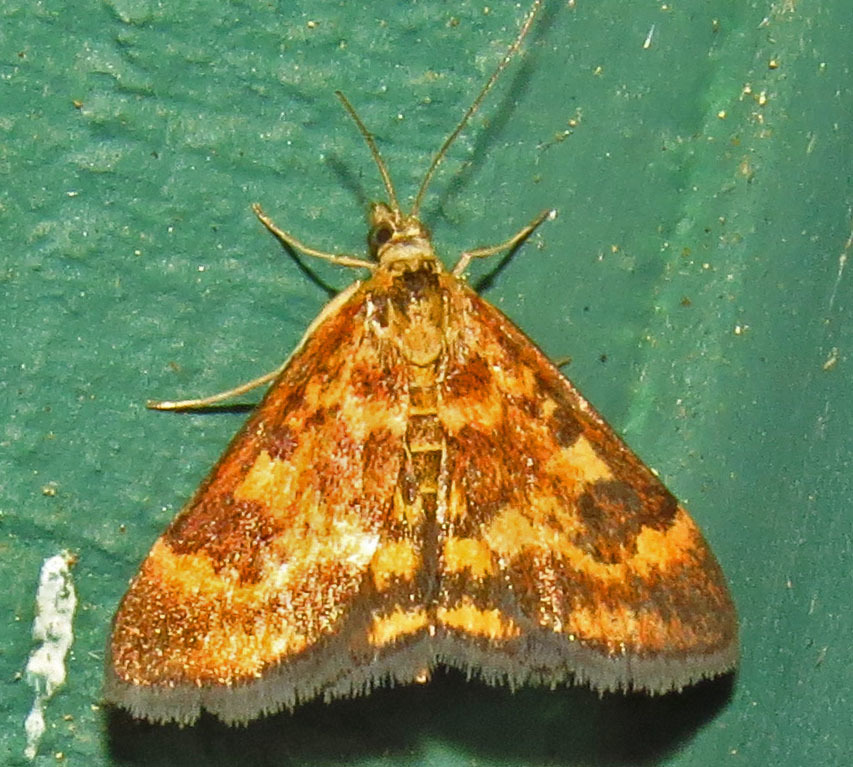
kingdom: Animalia
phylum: Arthropoda
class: Insecta
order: Lepidoptera
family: Crambidae
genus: Pyrausta
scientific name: Pyrausta subsequalis
